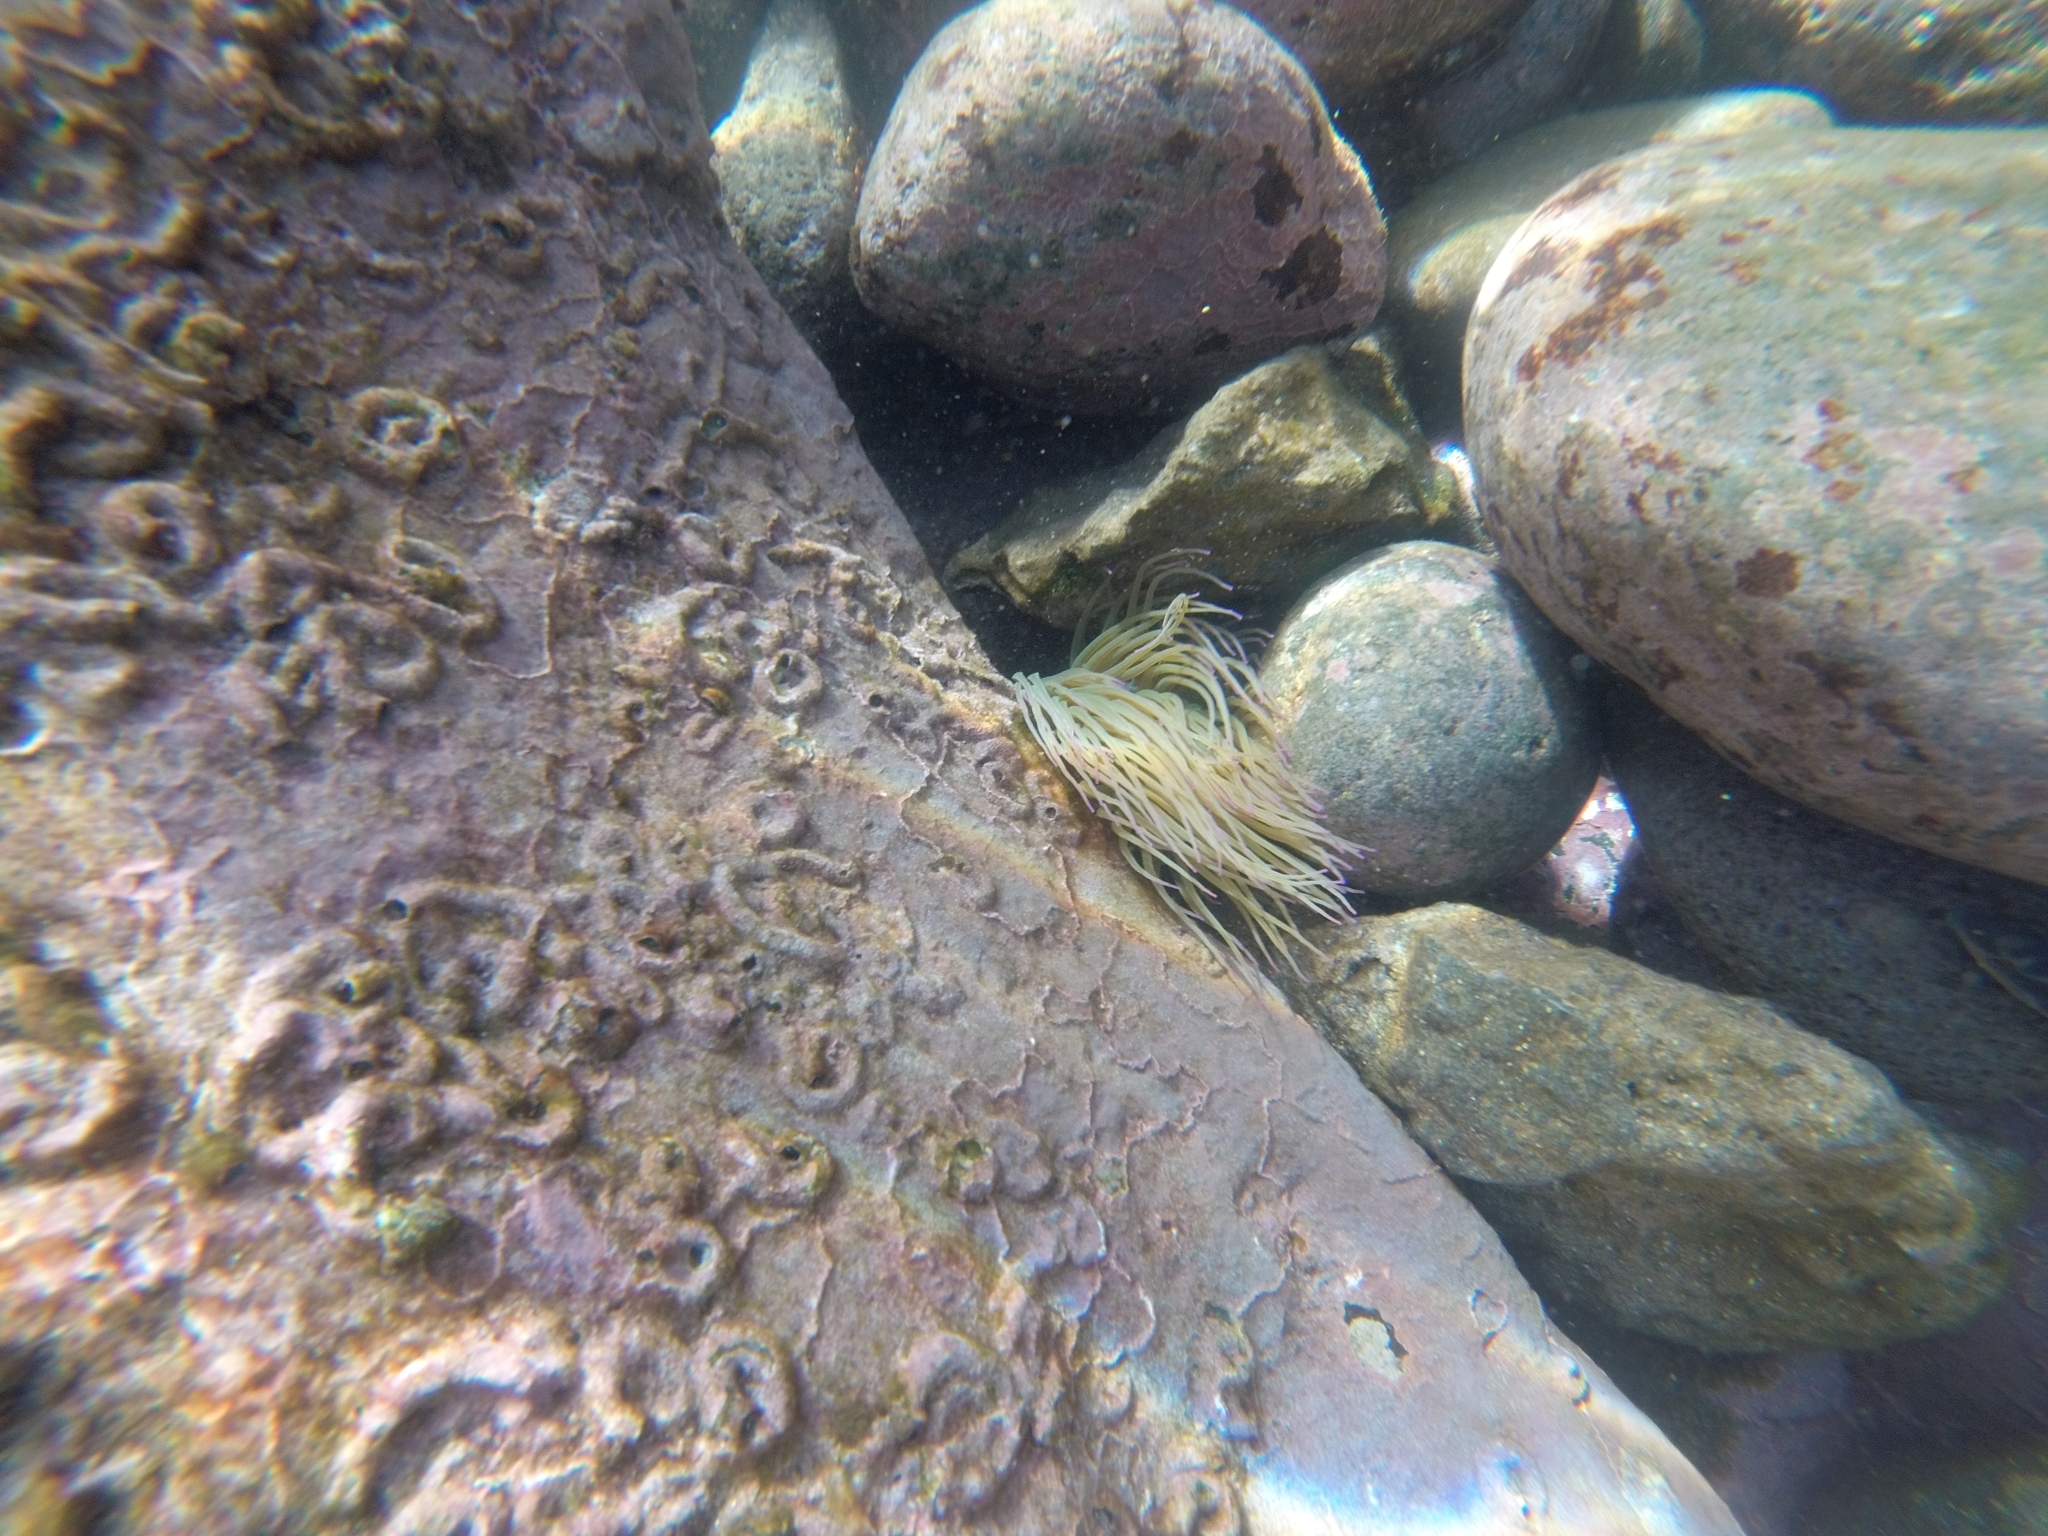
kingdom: Animalia
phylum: Cnidaria
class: Anthozoa
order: Actiniaria
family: Actiniidae
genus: Anemonia
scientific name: Anemonia viridis
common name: Snakelocks anemone
